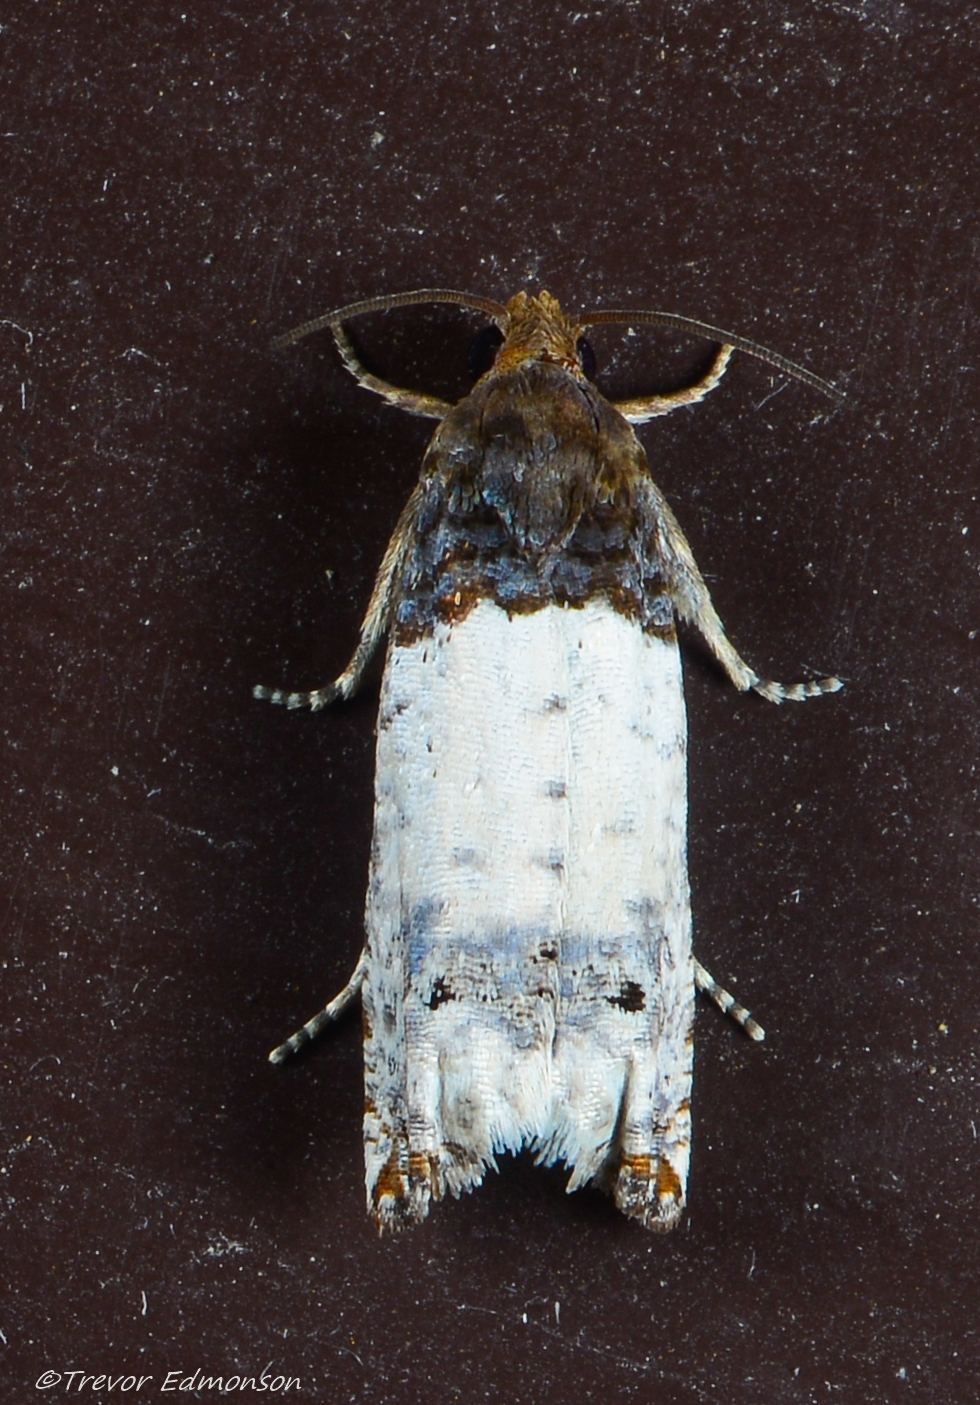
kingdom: Animalia
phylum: Arthropoda
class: Insecta
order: Lepidoptera
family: Tortricidae
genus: Epiblema
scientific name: Epiblema scudderiana
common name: Goldenrod gall moth
